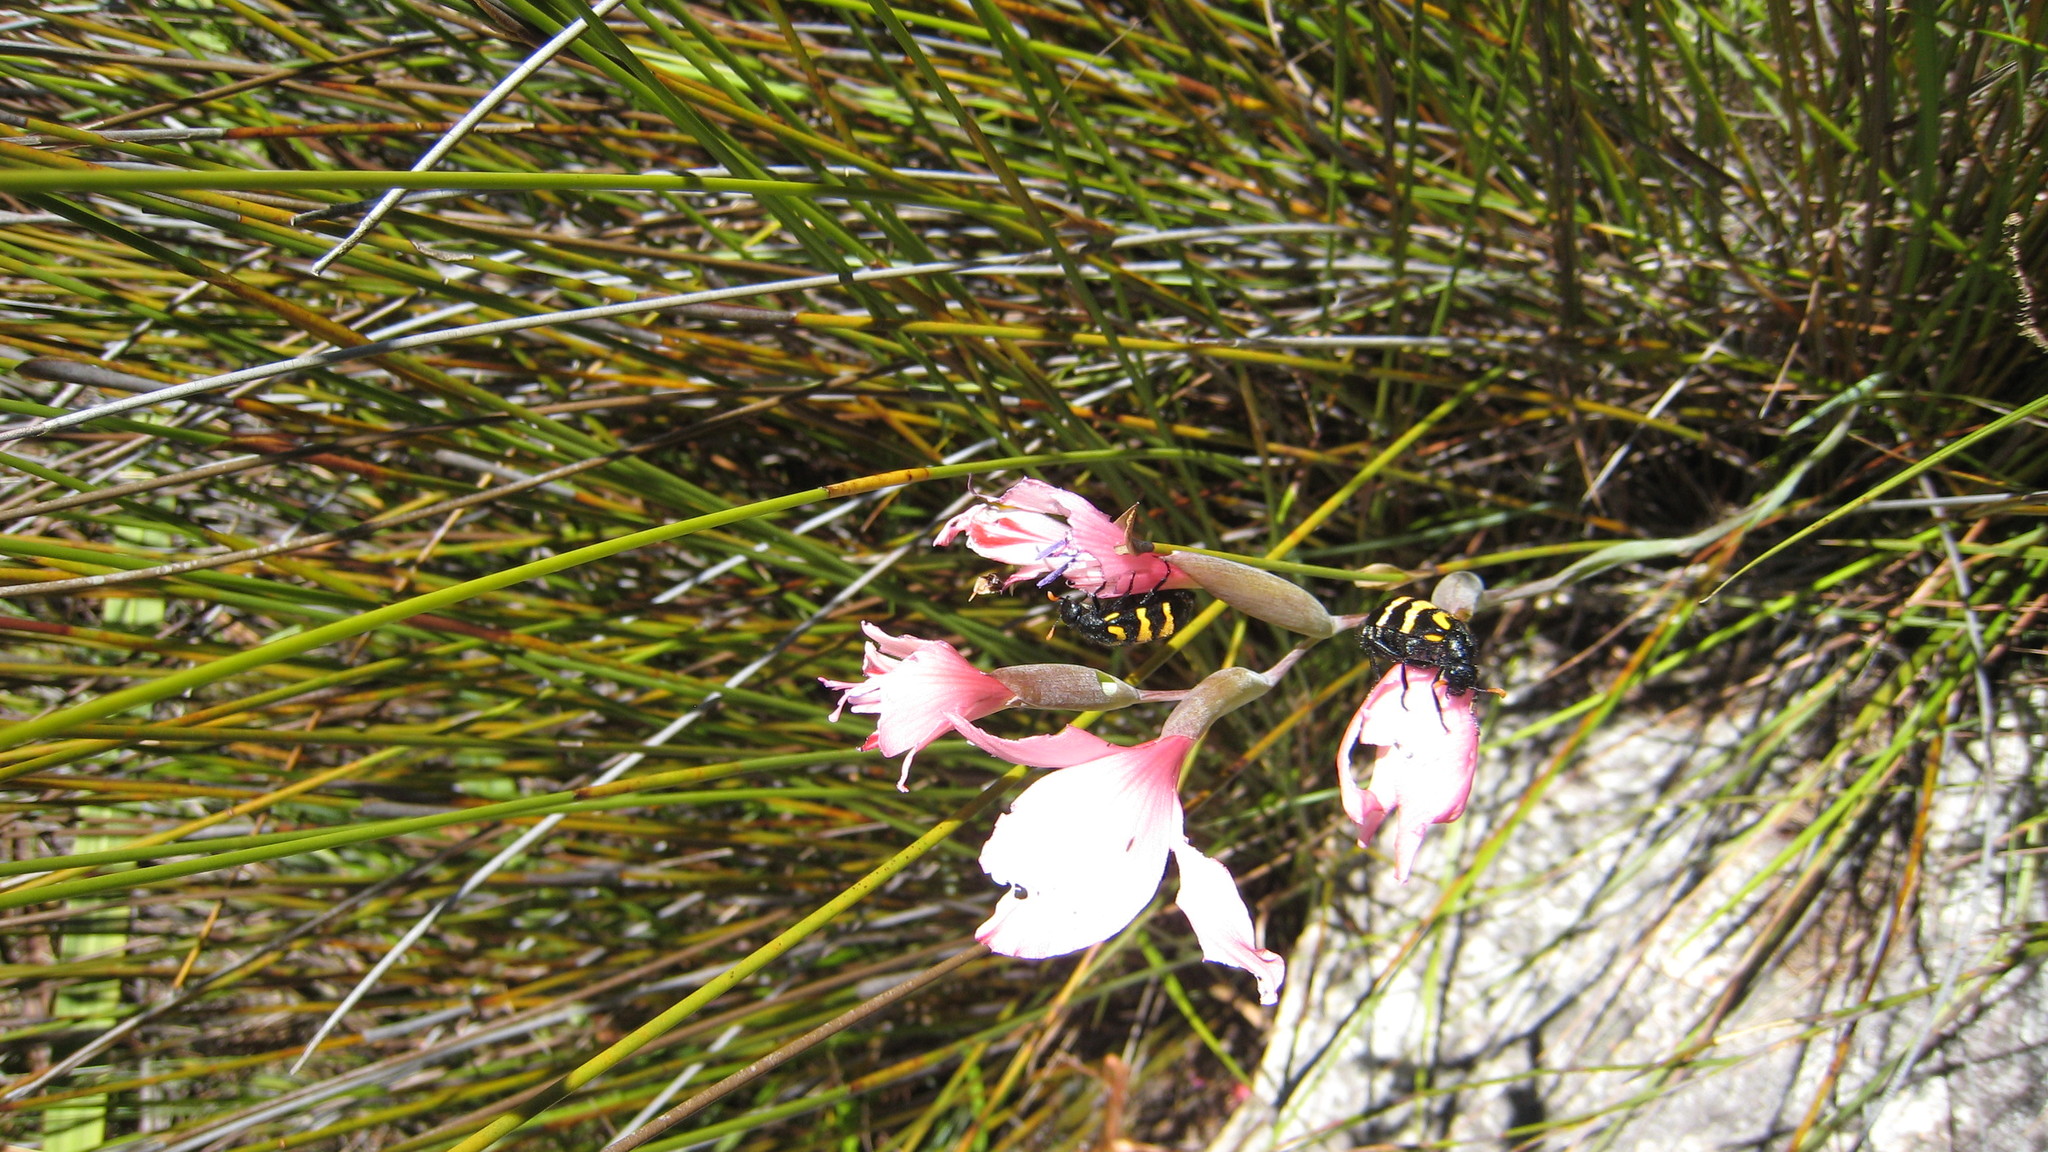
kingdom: Animalia
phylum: Arthropoda
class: Insecta
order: Coleoptera
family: Meloidae
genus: Meloe
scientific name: Meloe lunata
